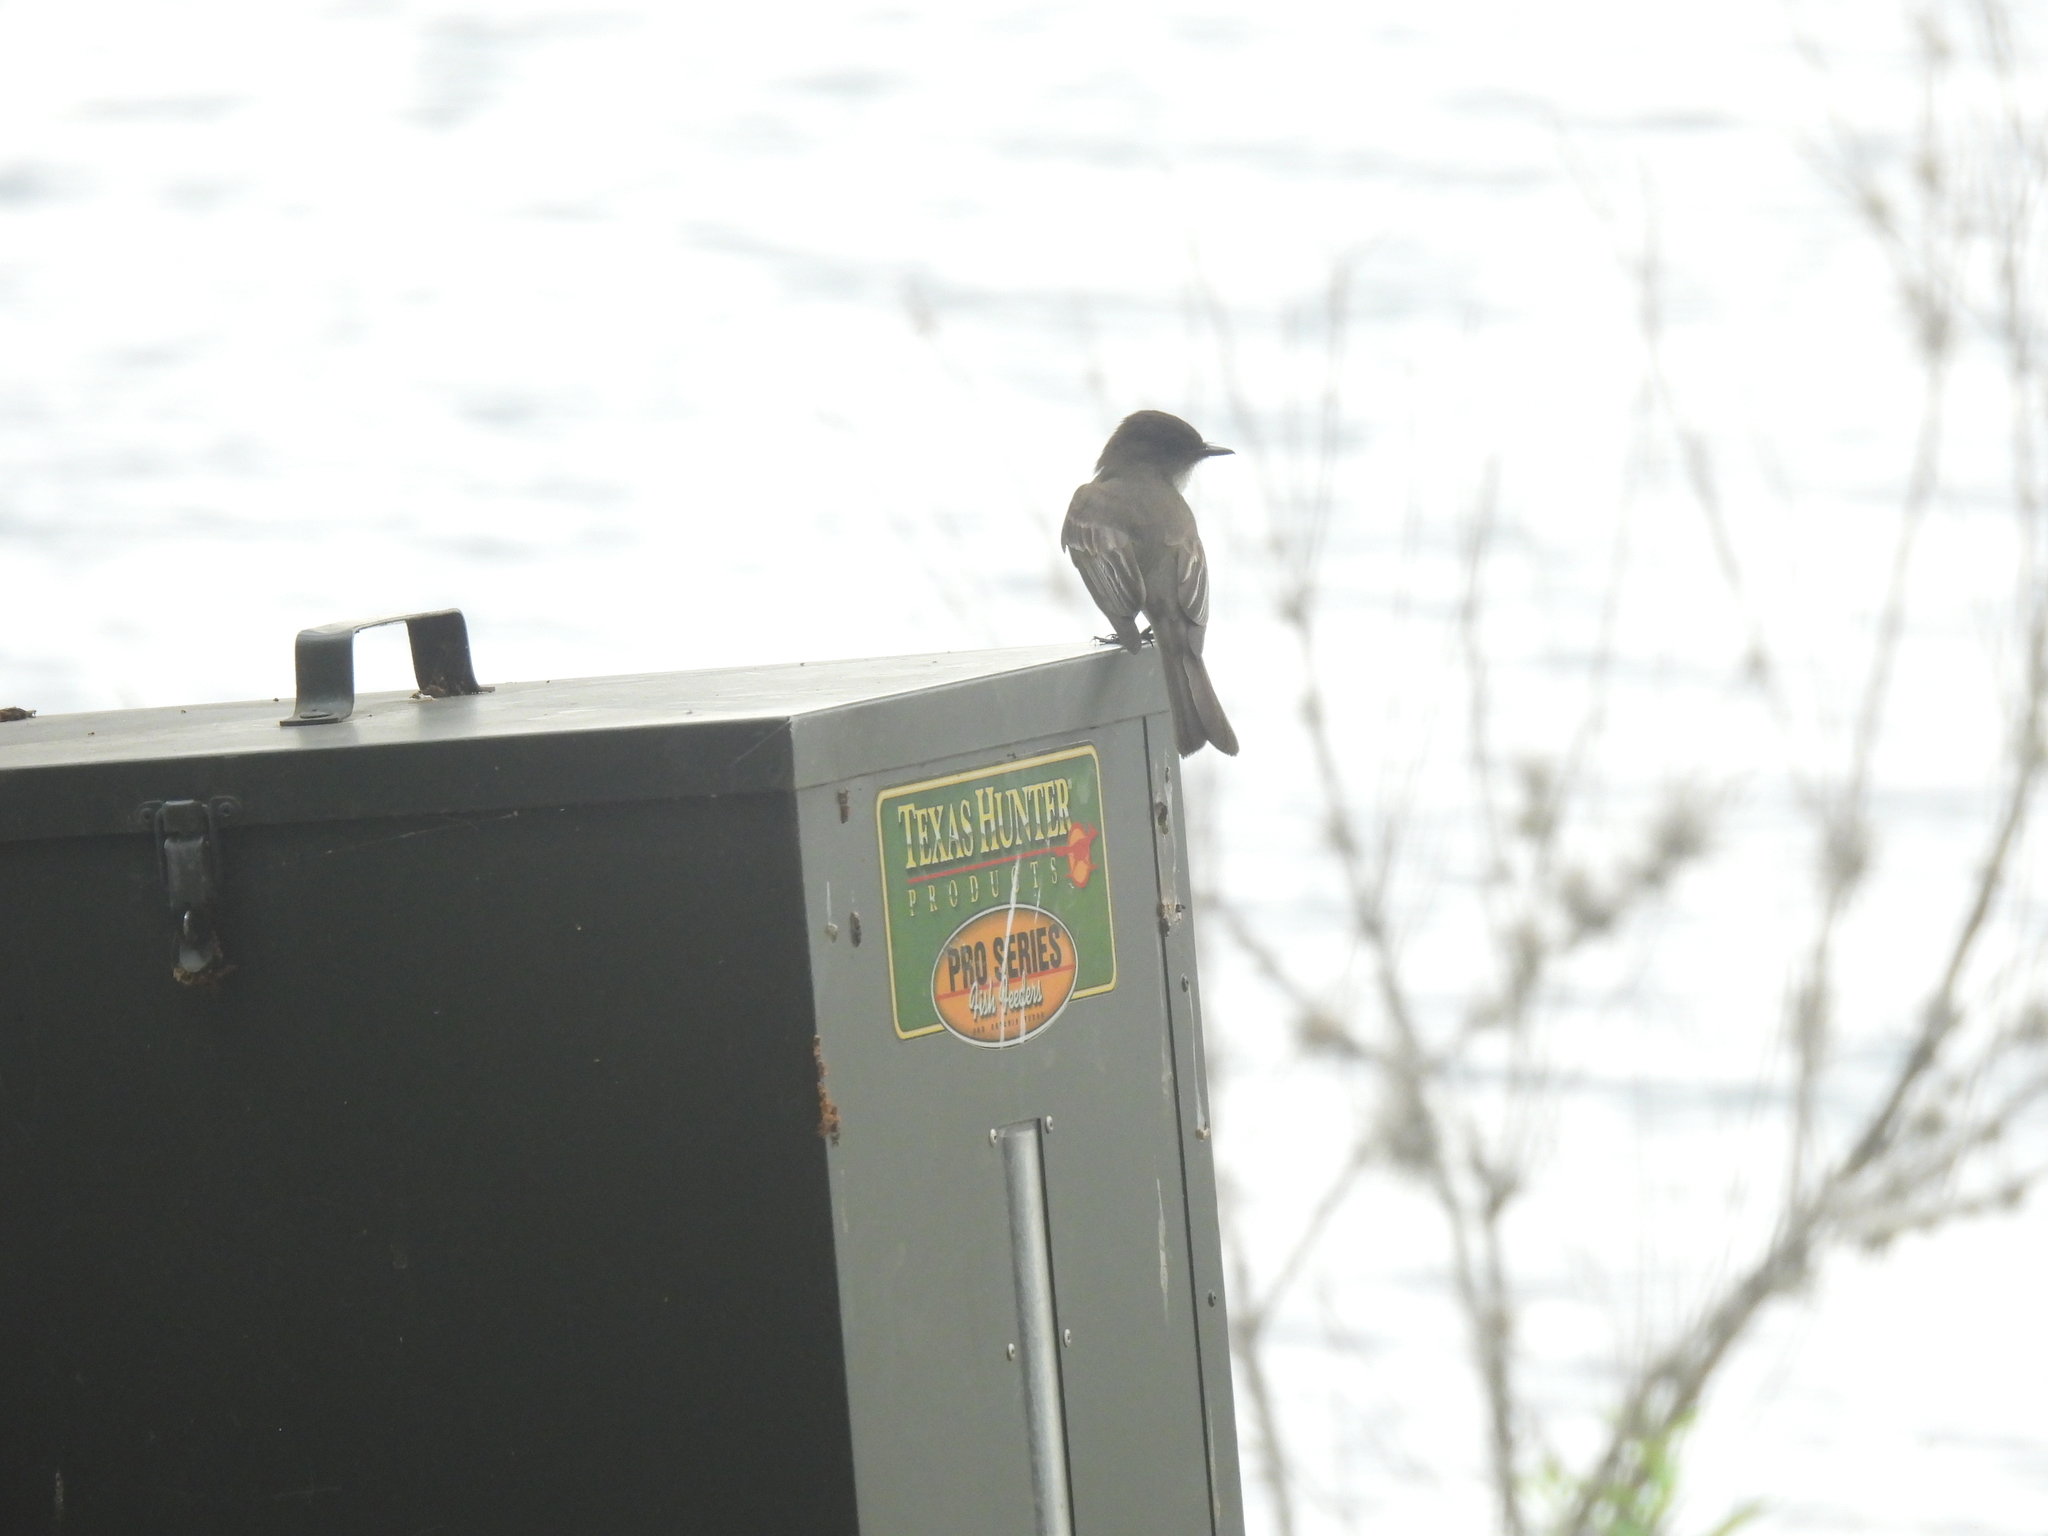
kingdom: Animalia
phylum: Chordata
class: Aves
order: Passeriformes
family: Tyrannidae
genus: Sayornis
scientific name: Sayornis phoebe
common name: Eastern phoebe
